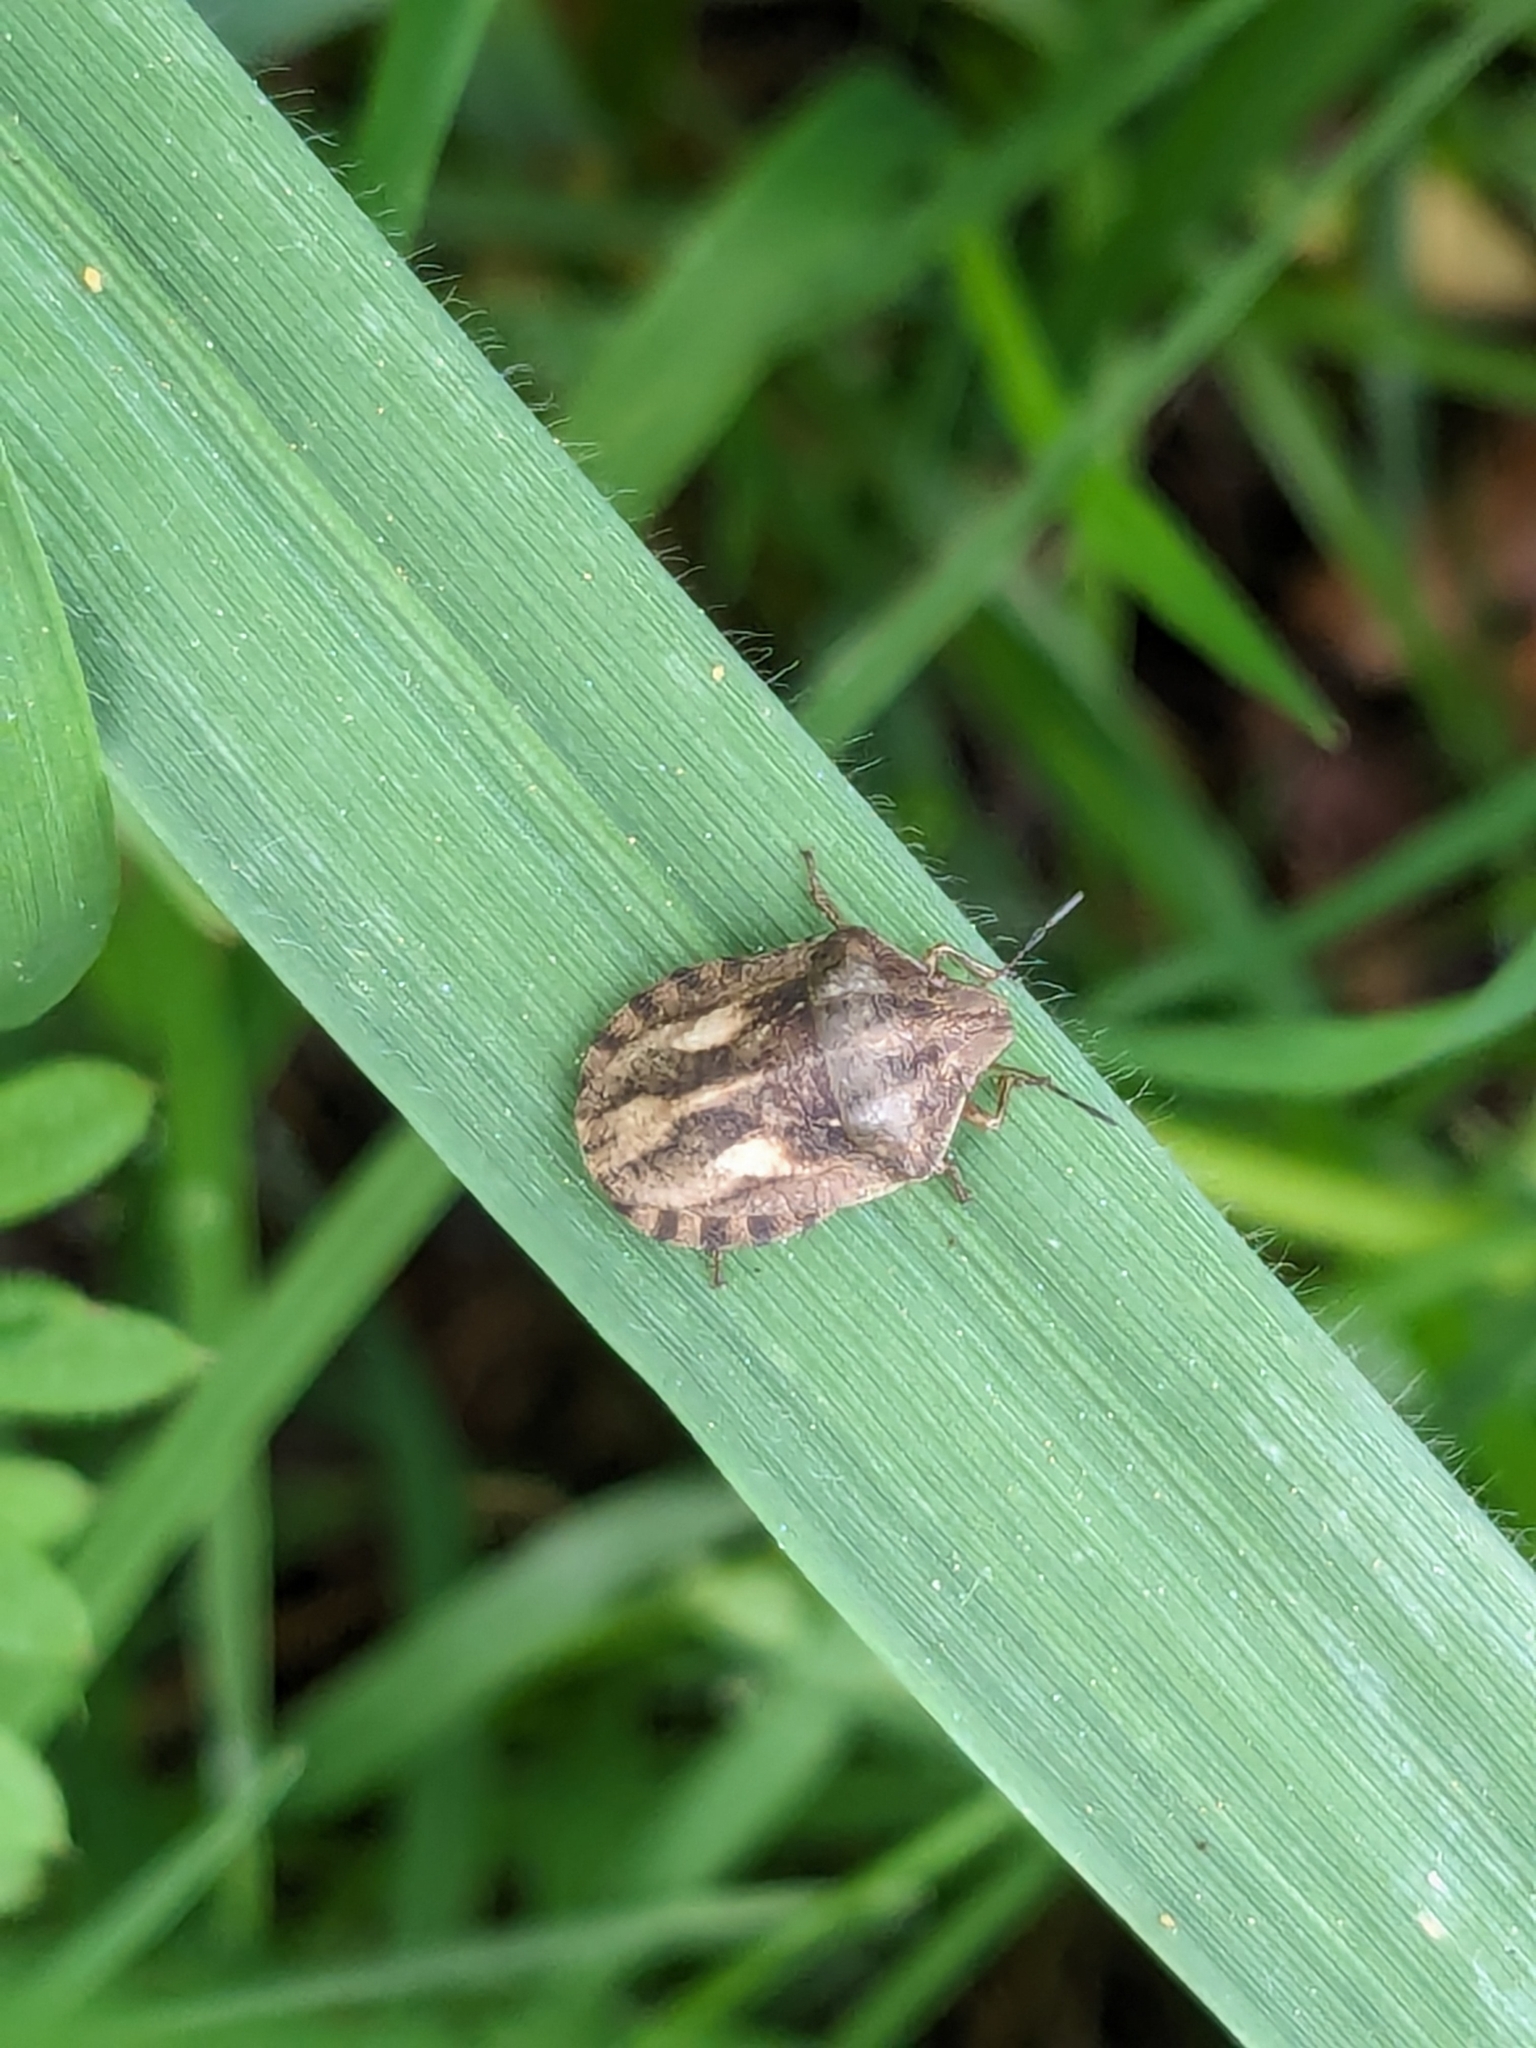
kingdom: Animalia
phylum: Arthropoda
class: Insecta
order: Hemiptera
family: Scutelleridae
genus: Eurygaster
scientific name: Eurygaster testudinaria
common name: Tortoise bug
